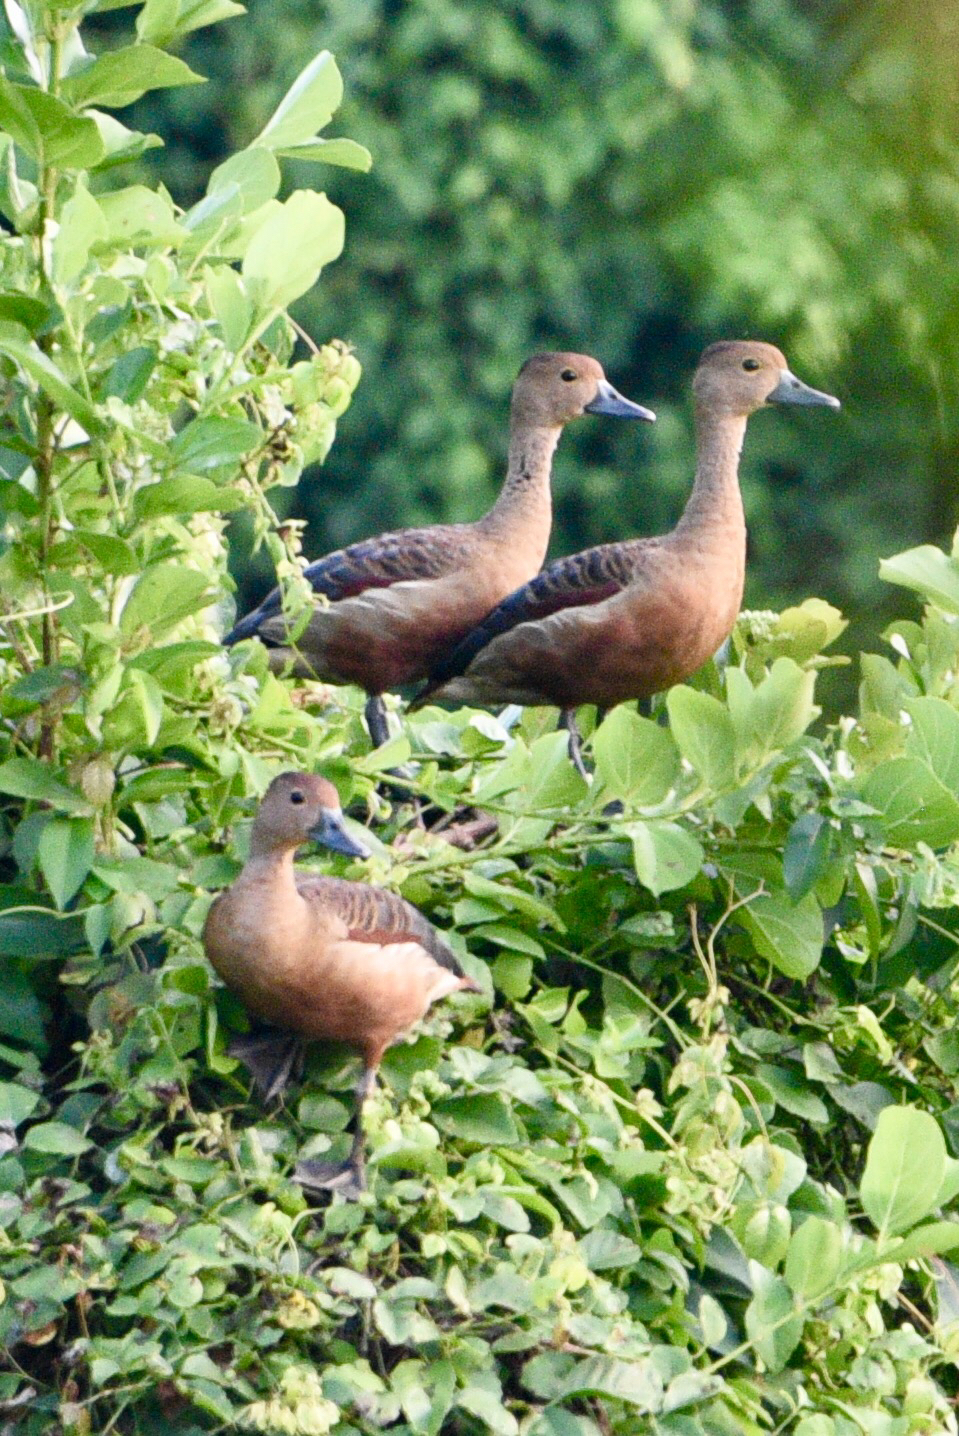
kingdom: Animalia
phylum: Chordata
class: Aves
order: Anseriformes
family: Anatidae
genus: Dendrocygna
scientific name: Dendrocygna javanica
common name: Lesser whistling-duck
